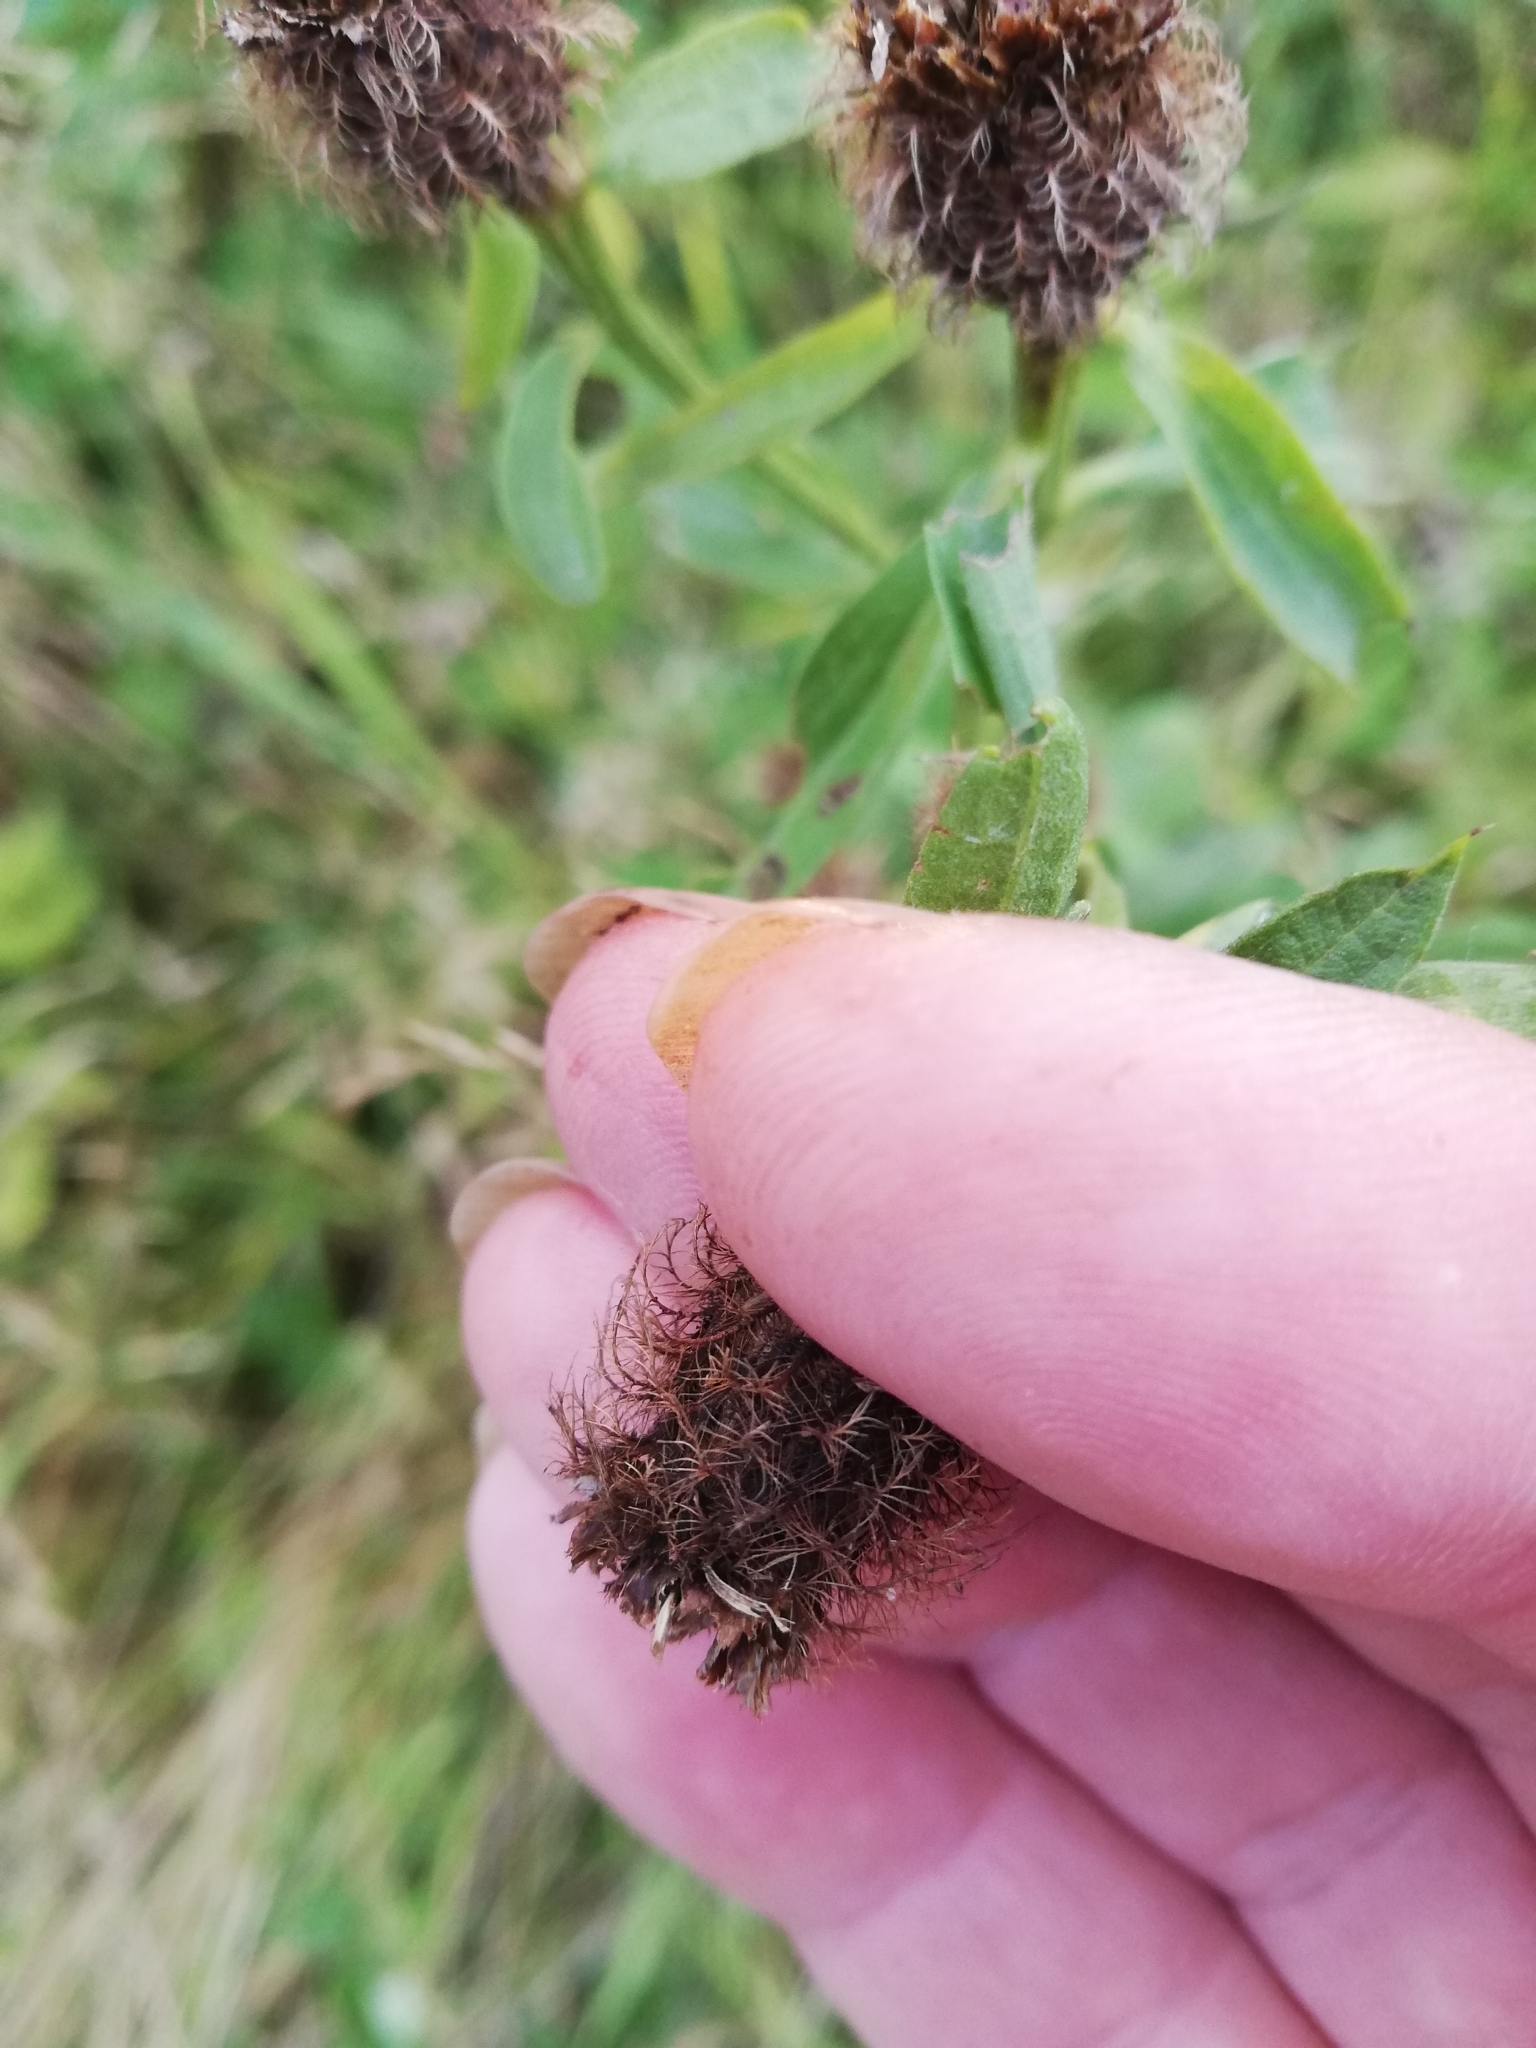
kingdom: Plantae
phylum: Tracheophyta
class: Magnoliopsida
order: Asterales
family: Asteraceae
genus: Centaurea
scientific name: Centaurea phrygia
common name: Wig knapweed
